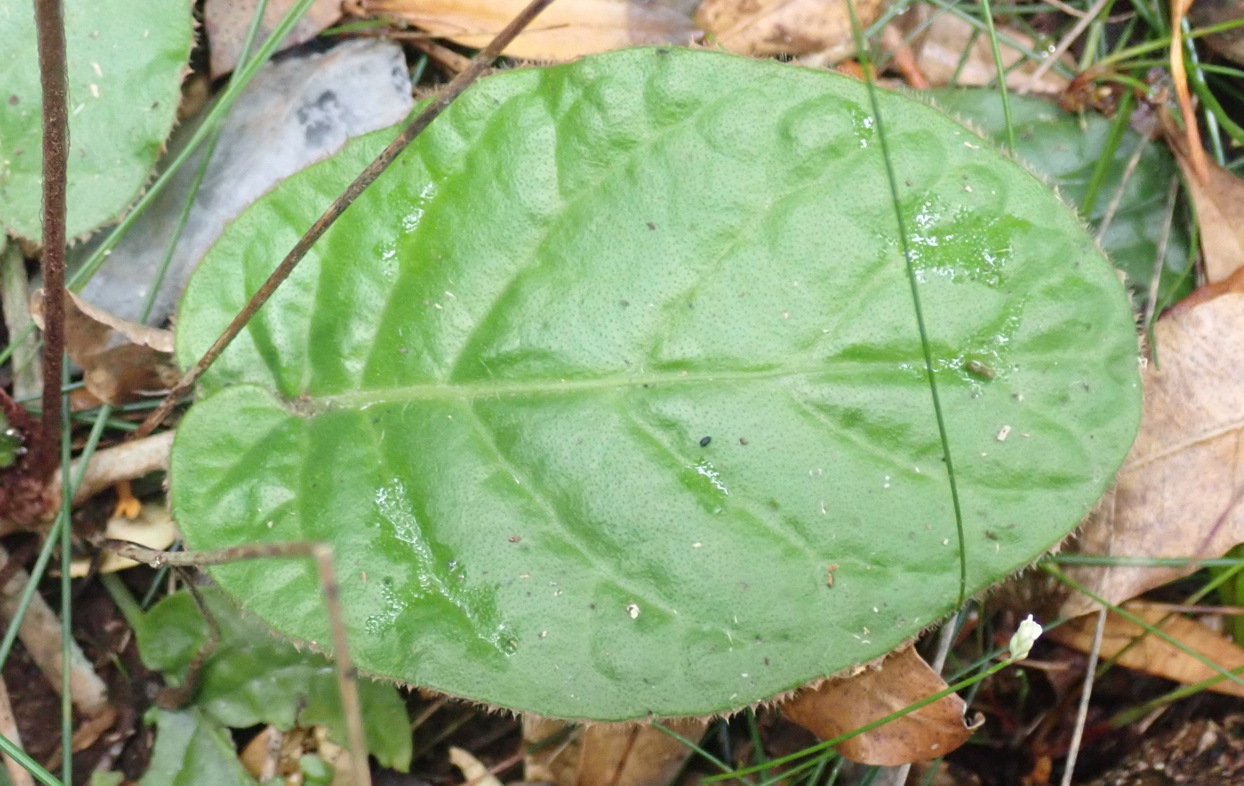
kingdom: Plantae
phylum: Tracheophyta
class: Magnoliopsida
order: Asterales
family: Asteraceae
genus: Piloselloides
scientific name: Piloselloides cordata
